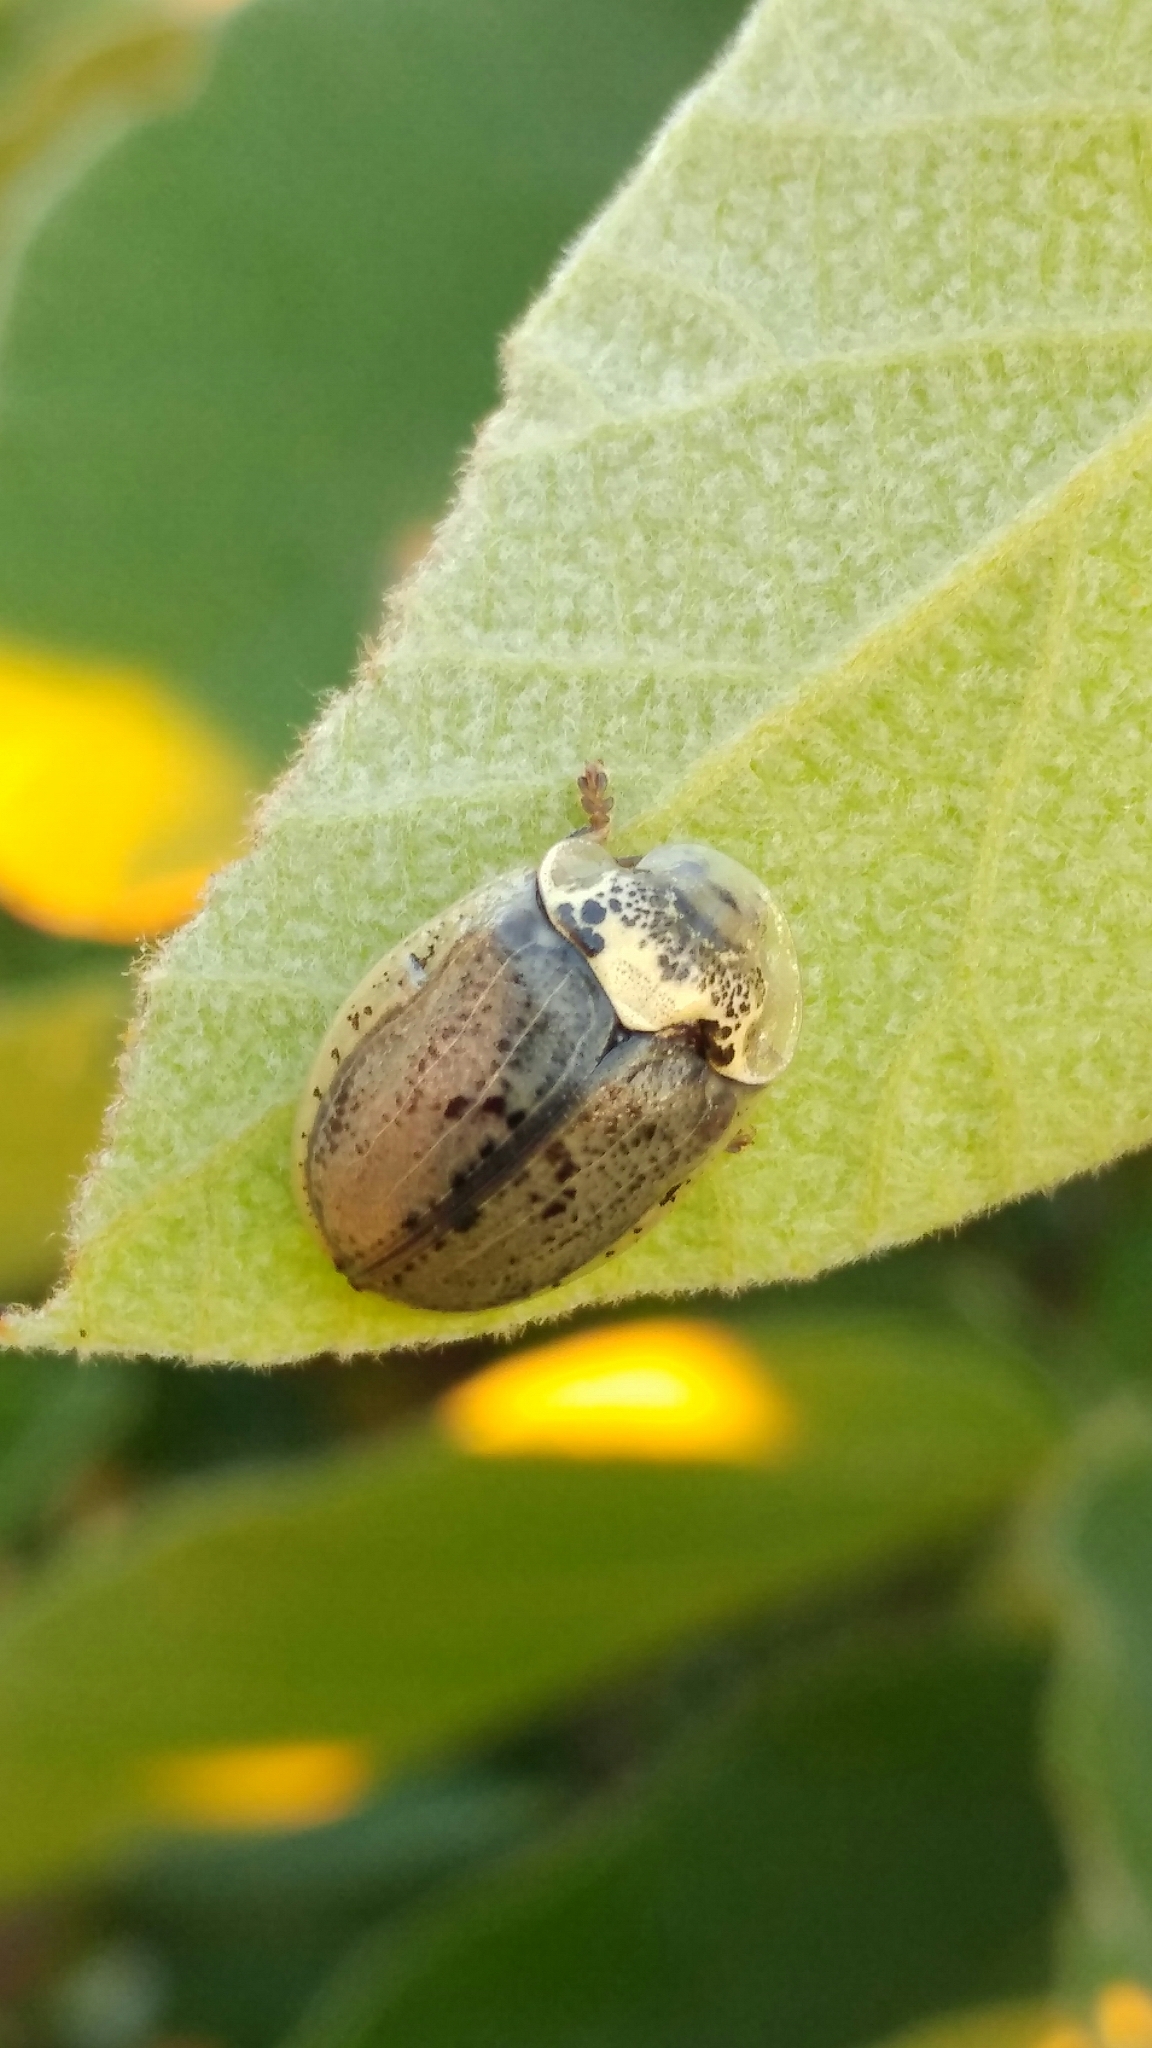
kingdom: Animalia
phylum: Arthropoda
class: Insecta
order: Coleoptera
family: Chrysomelidae
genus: Physonota
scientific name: Physonota alutacea
